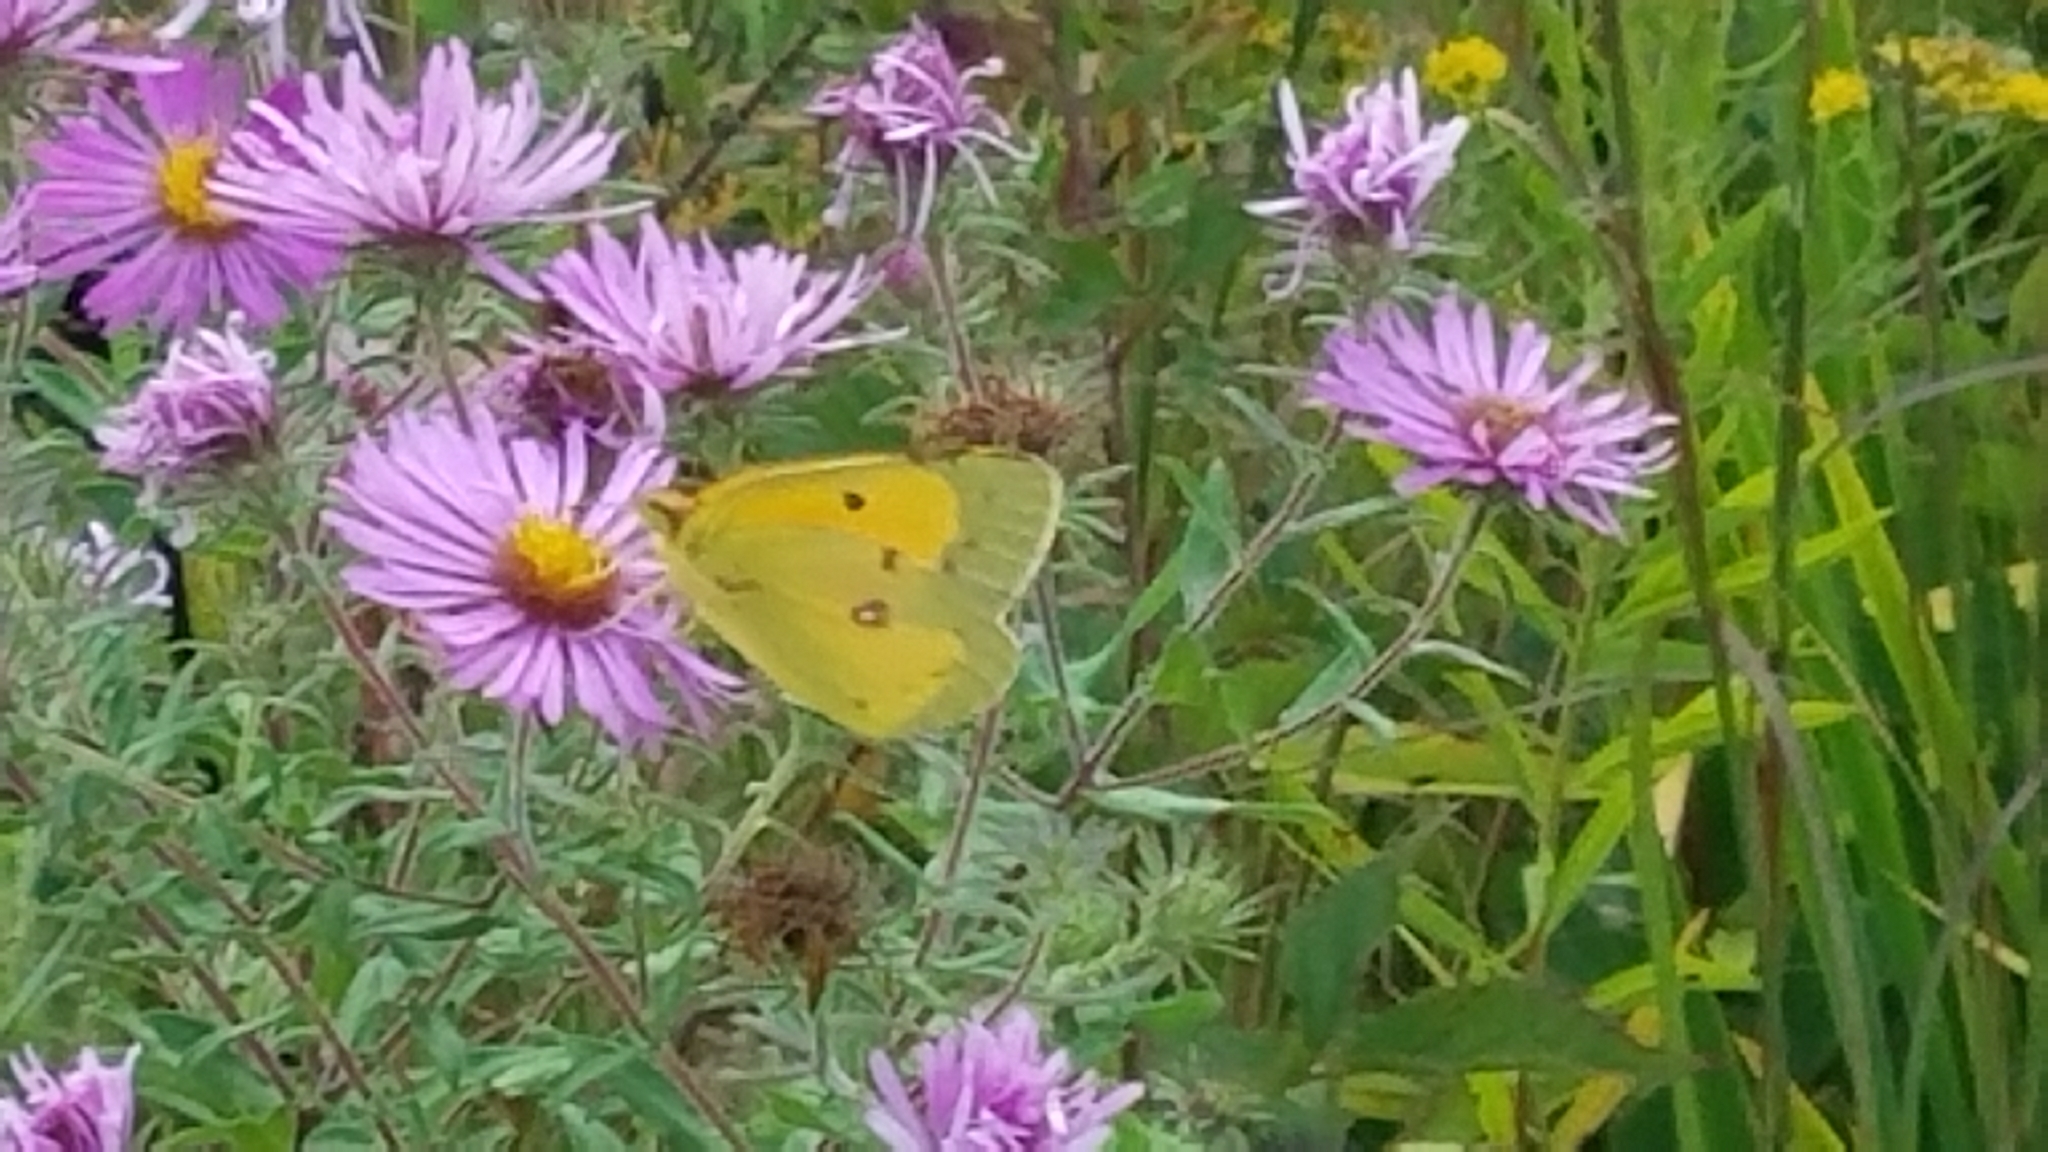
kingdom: Animalia
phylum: Arthropoda
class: Insecta
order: Lepidoptera
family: Pieridae
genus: Colias
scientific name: Colias eurytheme
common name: Alfalfa butterfly
